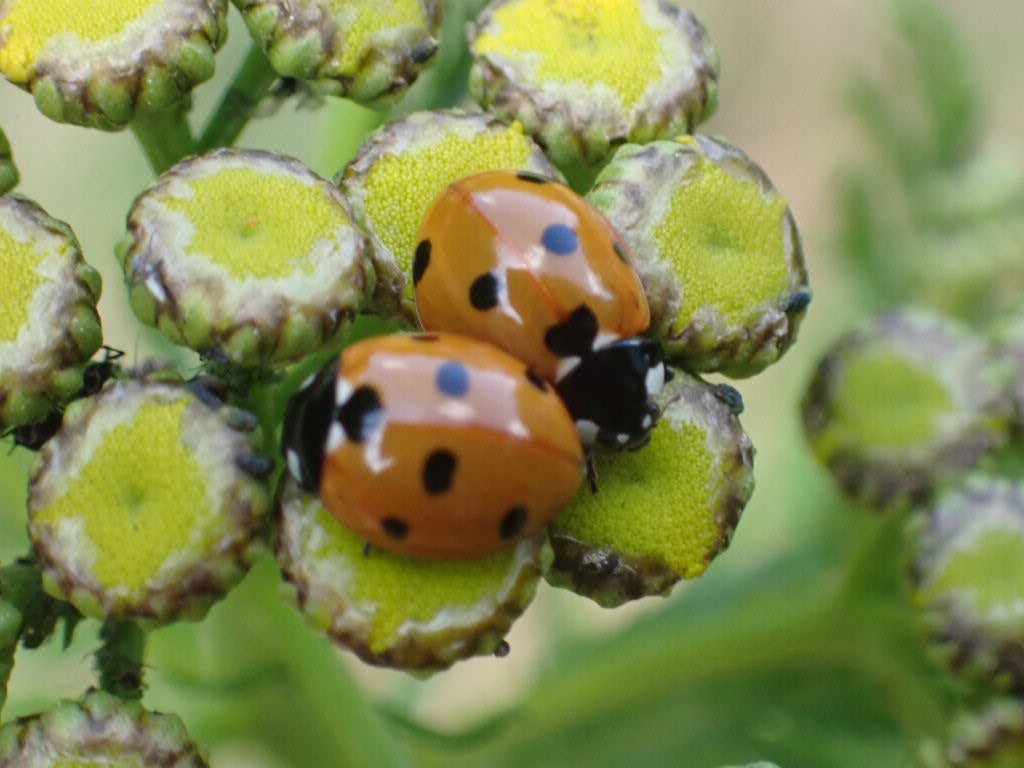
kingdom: Animalia
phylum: Arthropoda
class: Insecta
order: Coleoptera
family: Coccinellidae
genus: Coccinella
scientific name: Coccinella septempunctata
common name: Sevenspotted lady beetle
